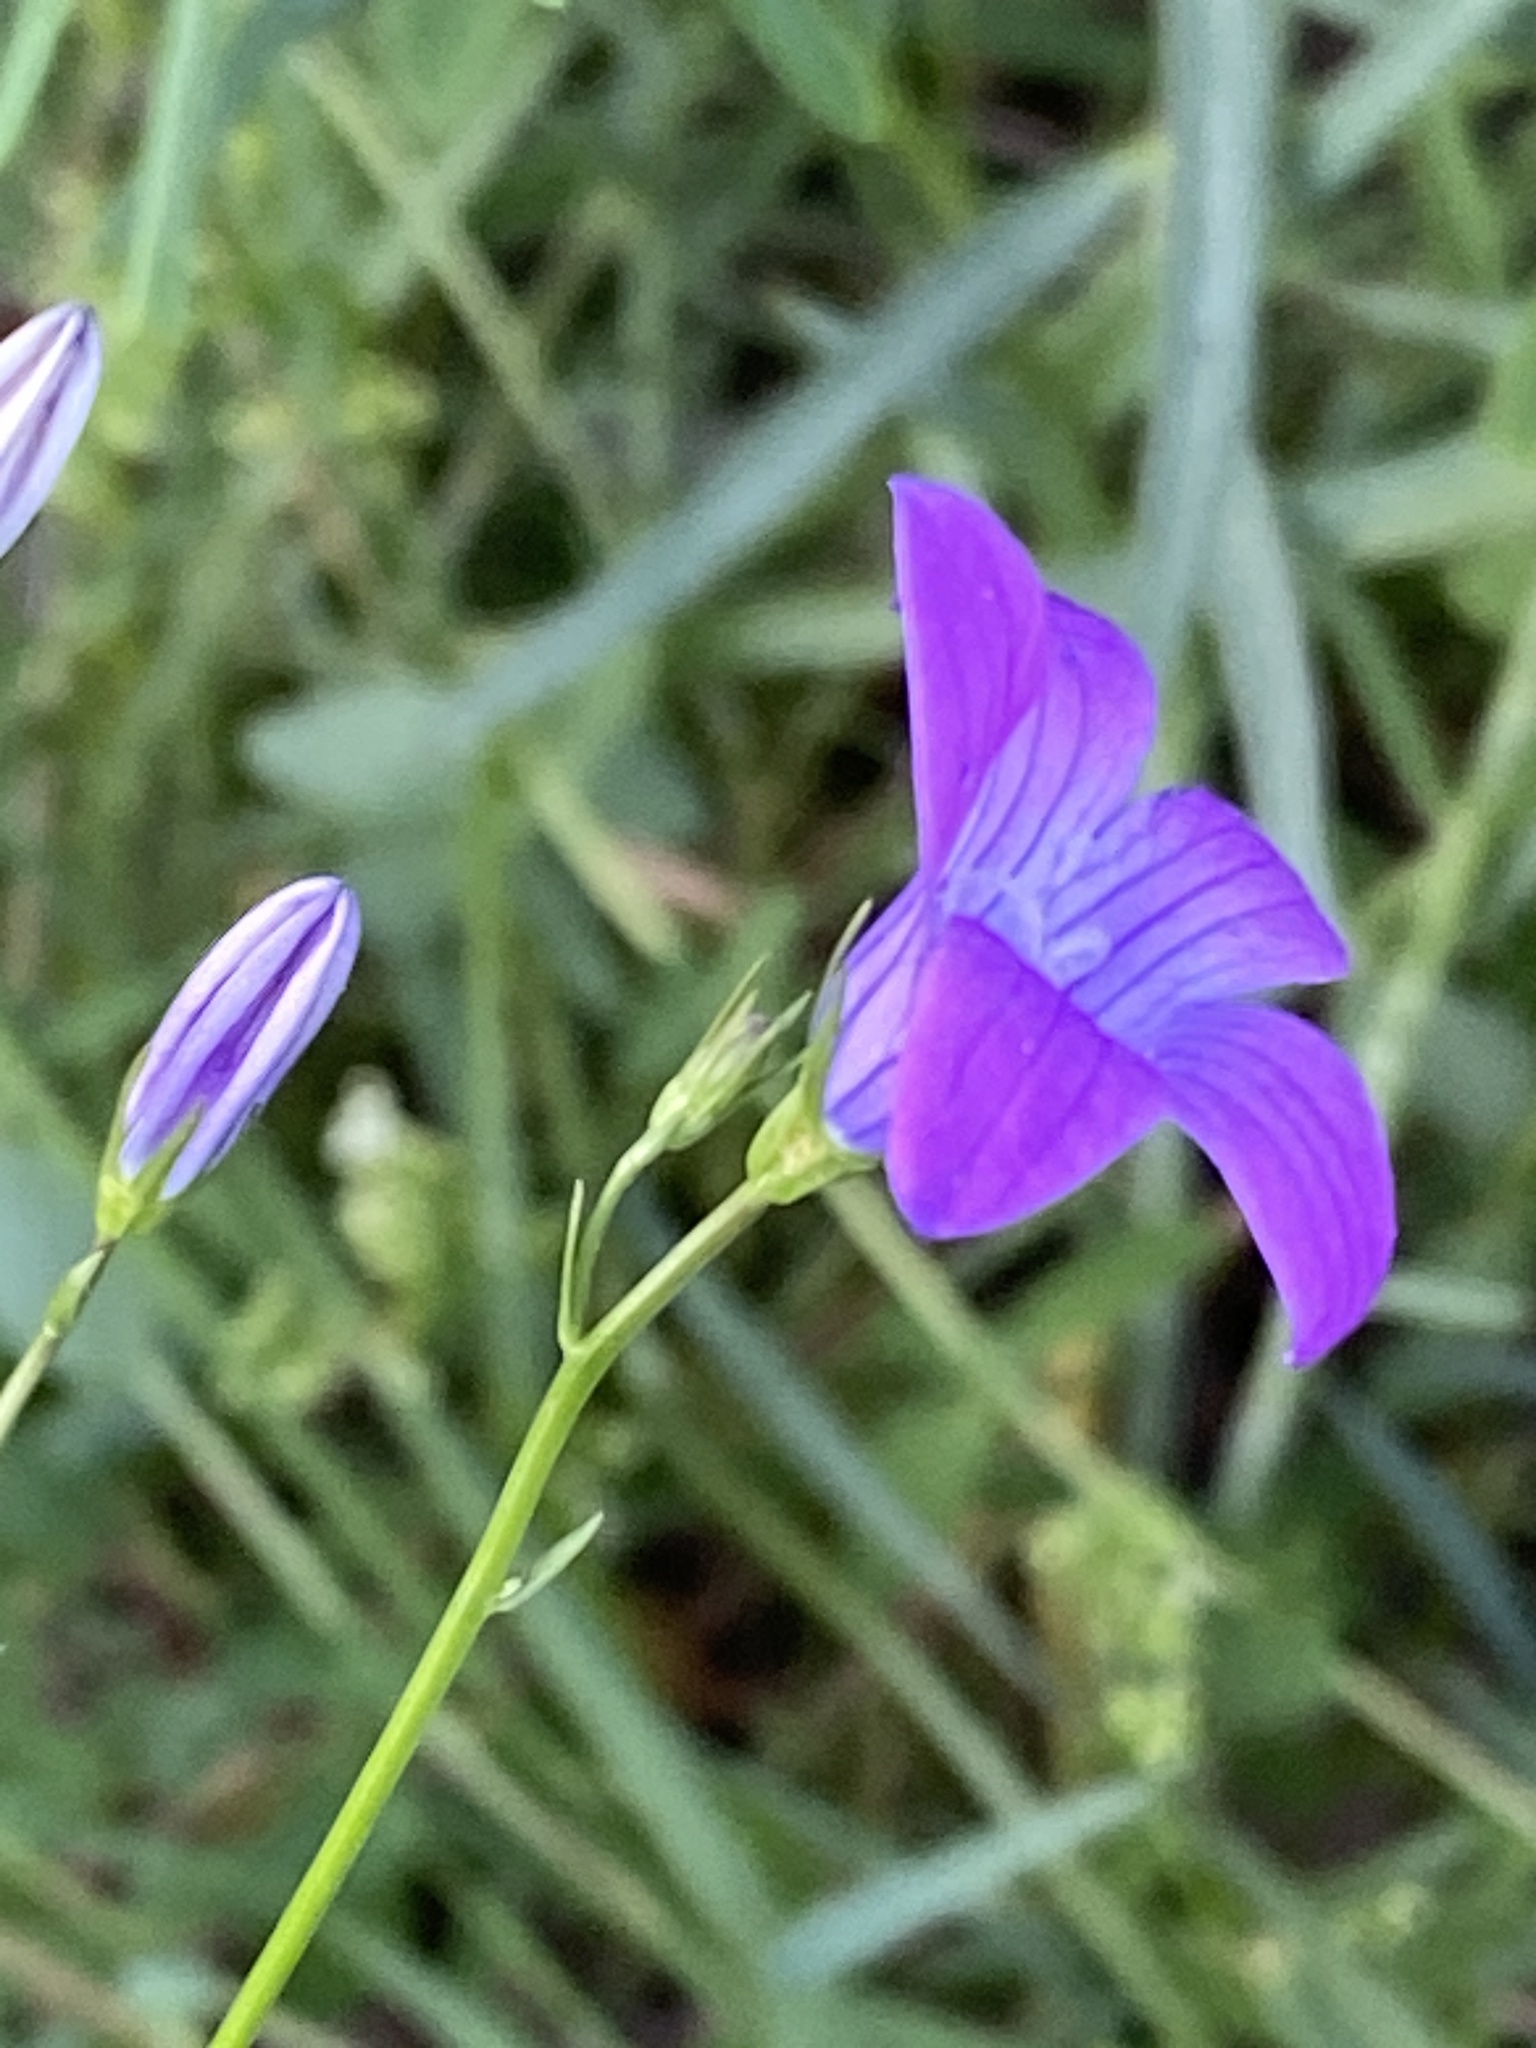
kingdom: Plantae
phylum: Tracheophyta
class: Magnoliopsida
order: Asterales
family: Campanulaceae
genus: Campanula
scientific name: Campanula patula
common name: Spreading bellflower
